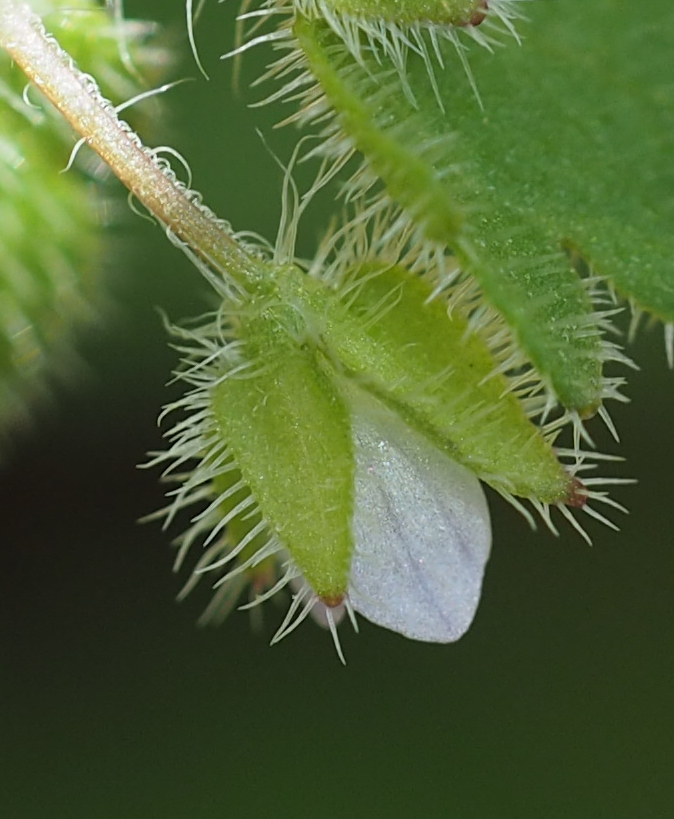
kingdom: Plantae
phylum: Tracheophyta
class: Magnoliopsida
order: Lamiales
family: Plantaginaceae
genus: Veronica
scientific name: Veronica sublobata
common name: False ivy-leaved speedwell
